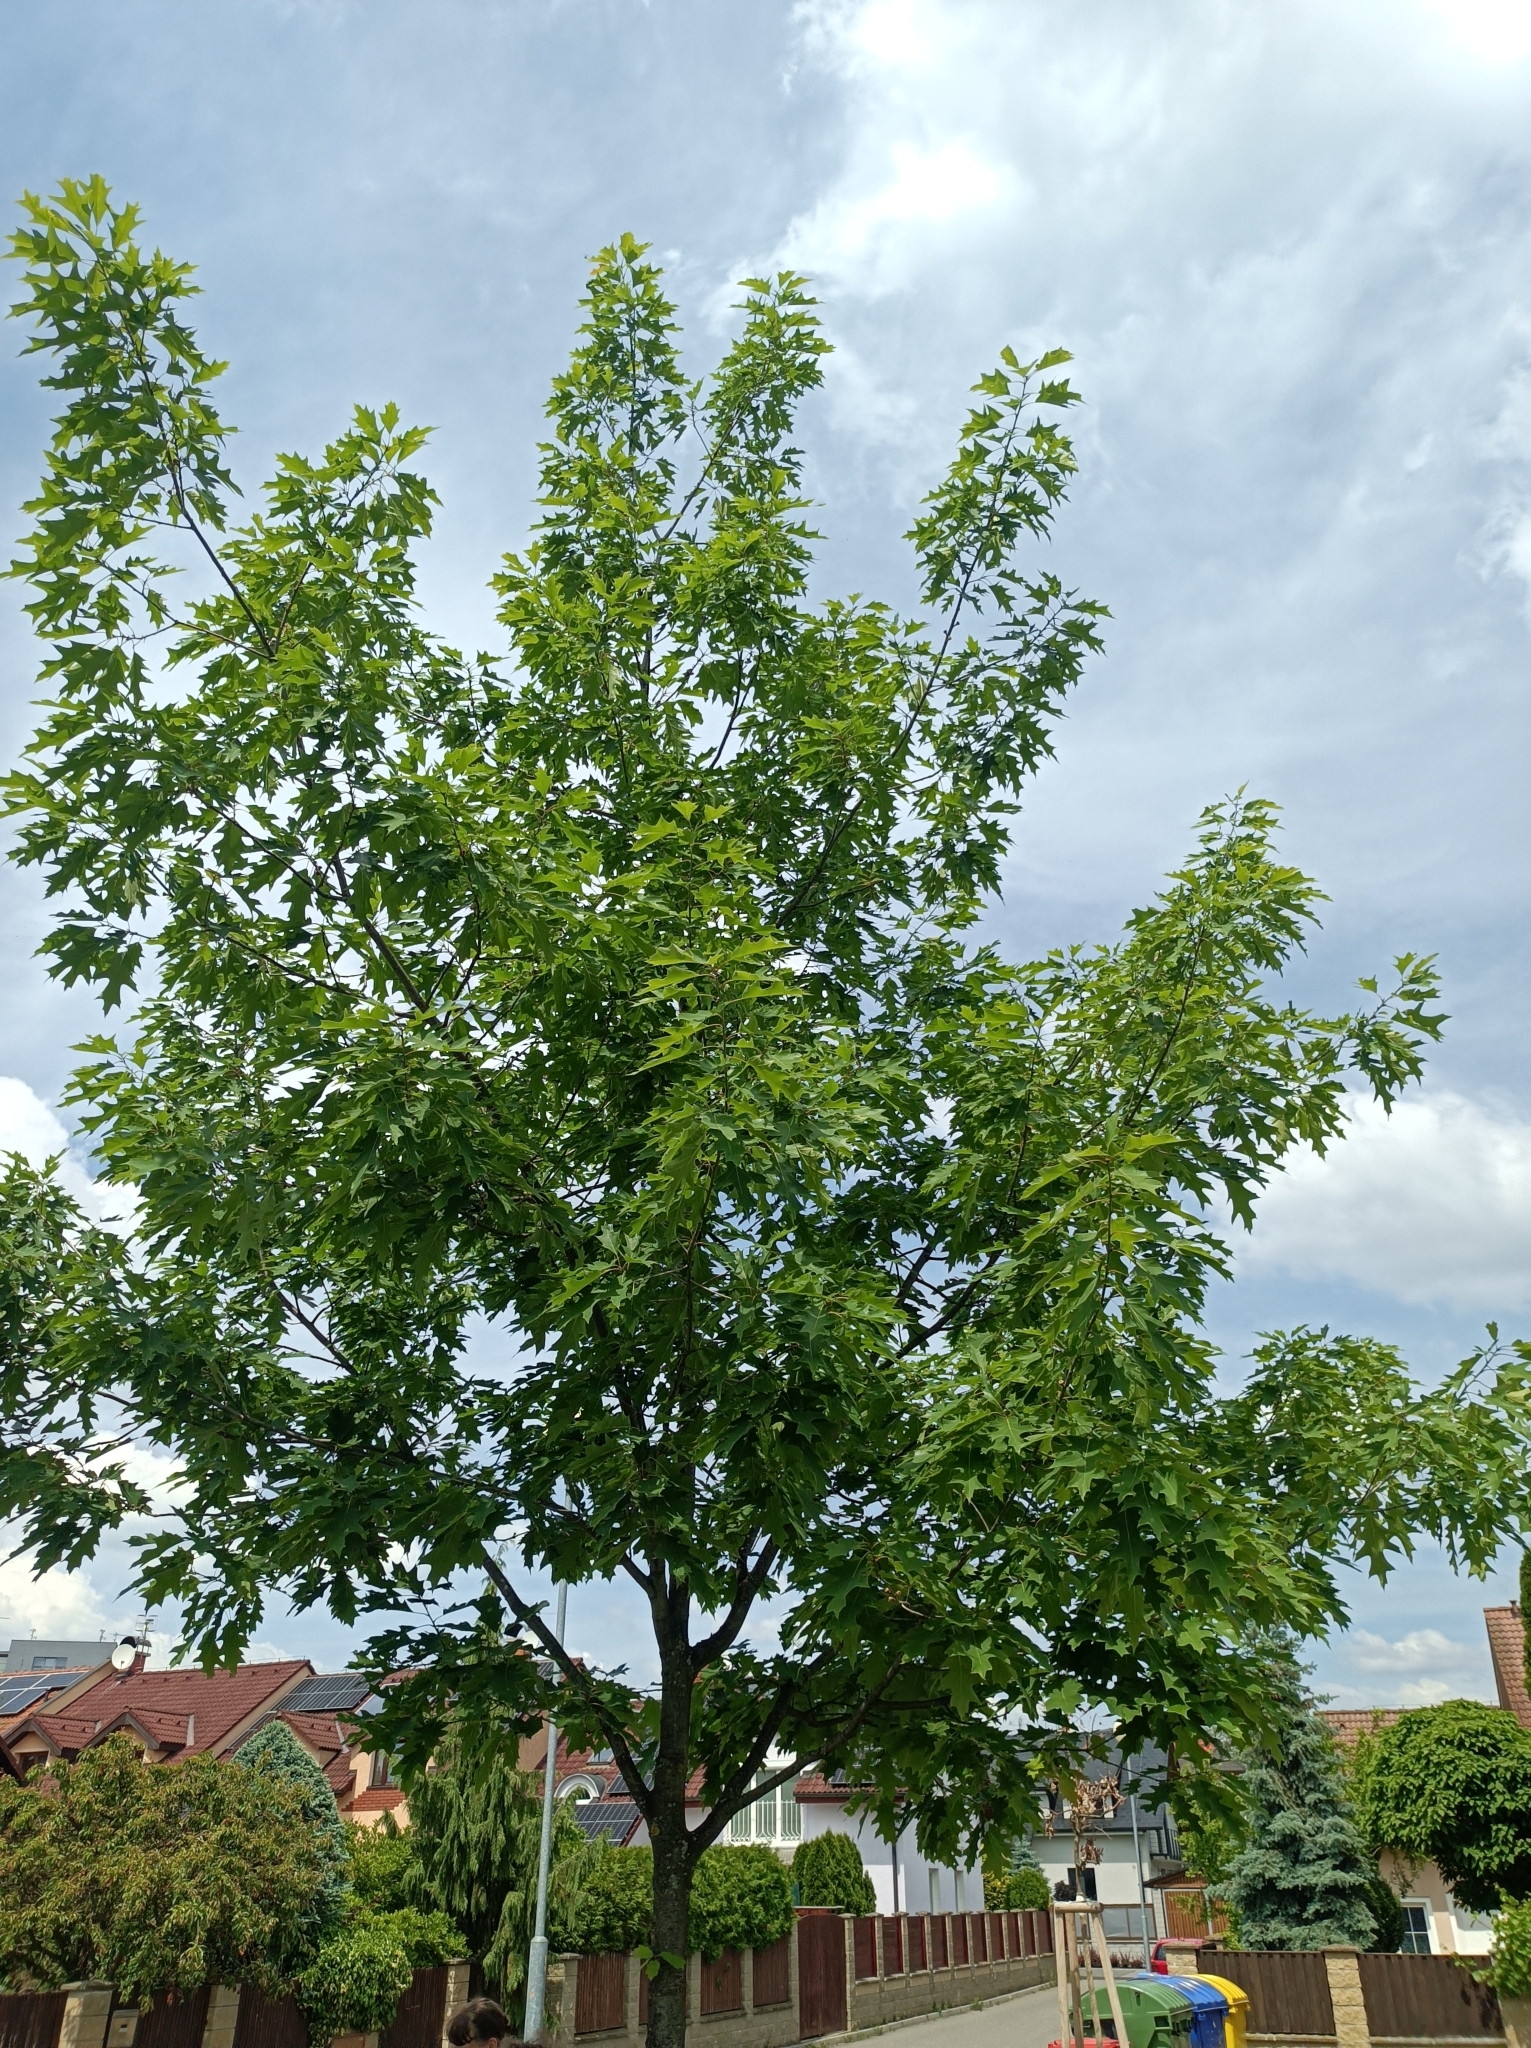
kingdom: Plantae
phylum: Tracheophyta
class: Magnoliopsida
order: Fagales
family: Fagaceae
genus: Quercus
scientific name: Quercus rubra
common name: Red oak
